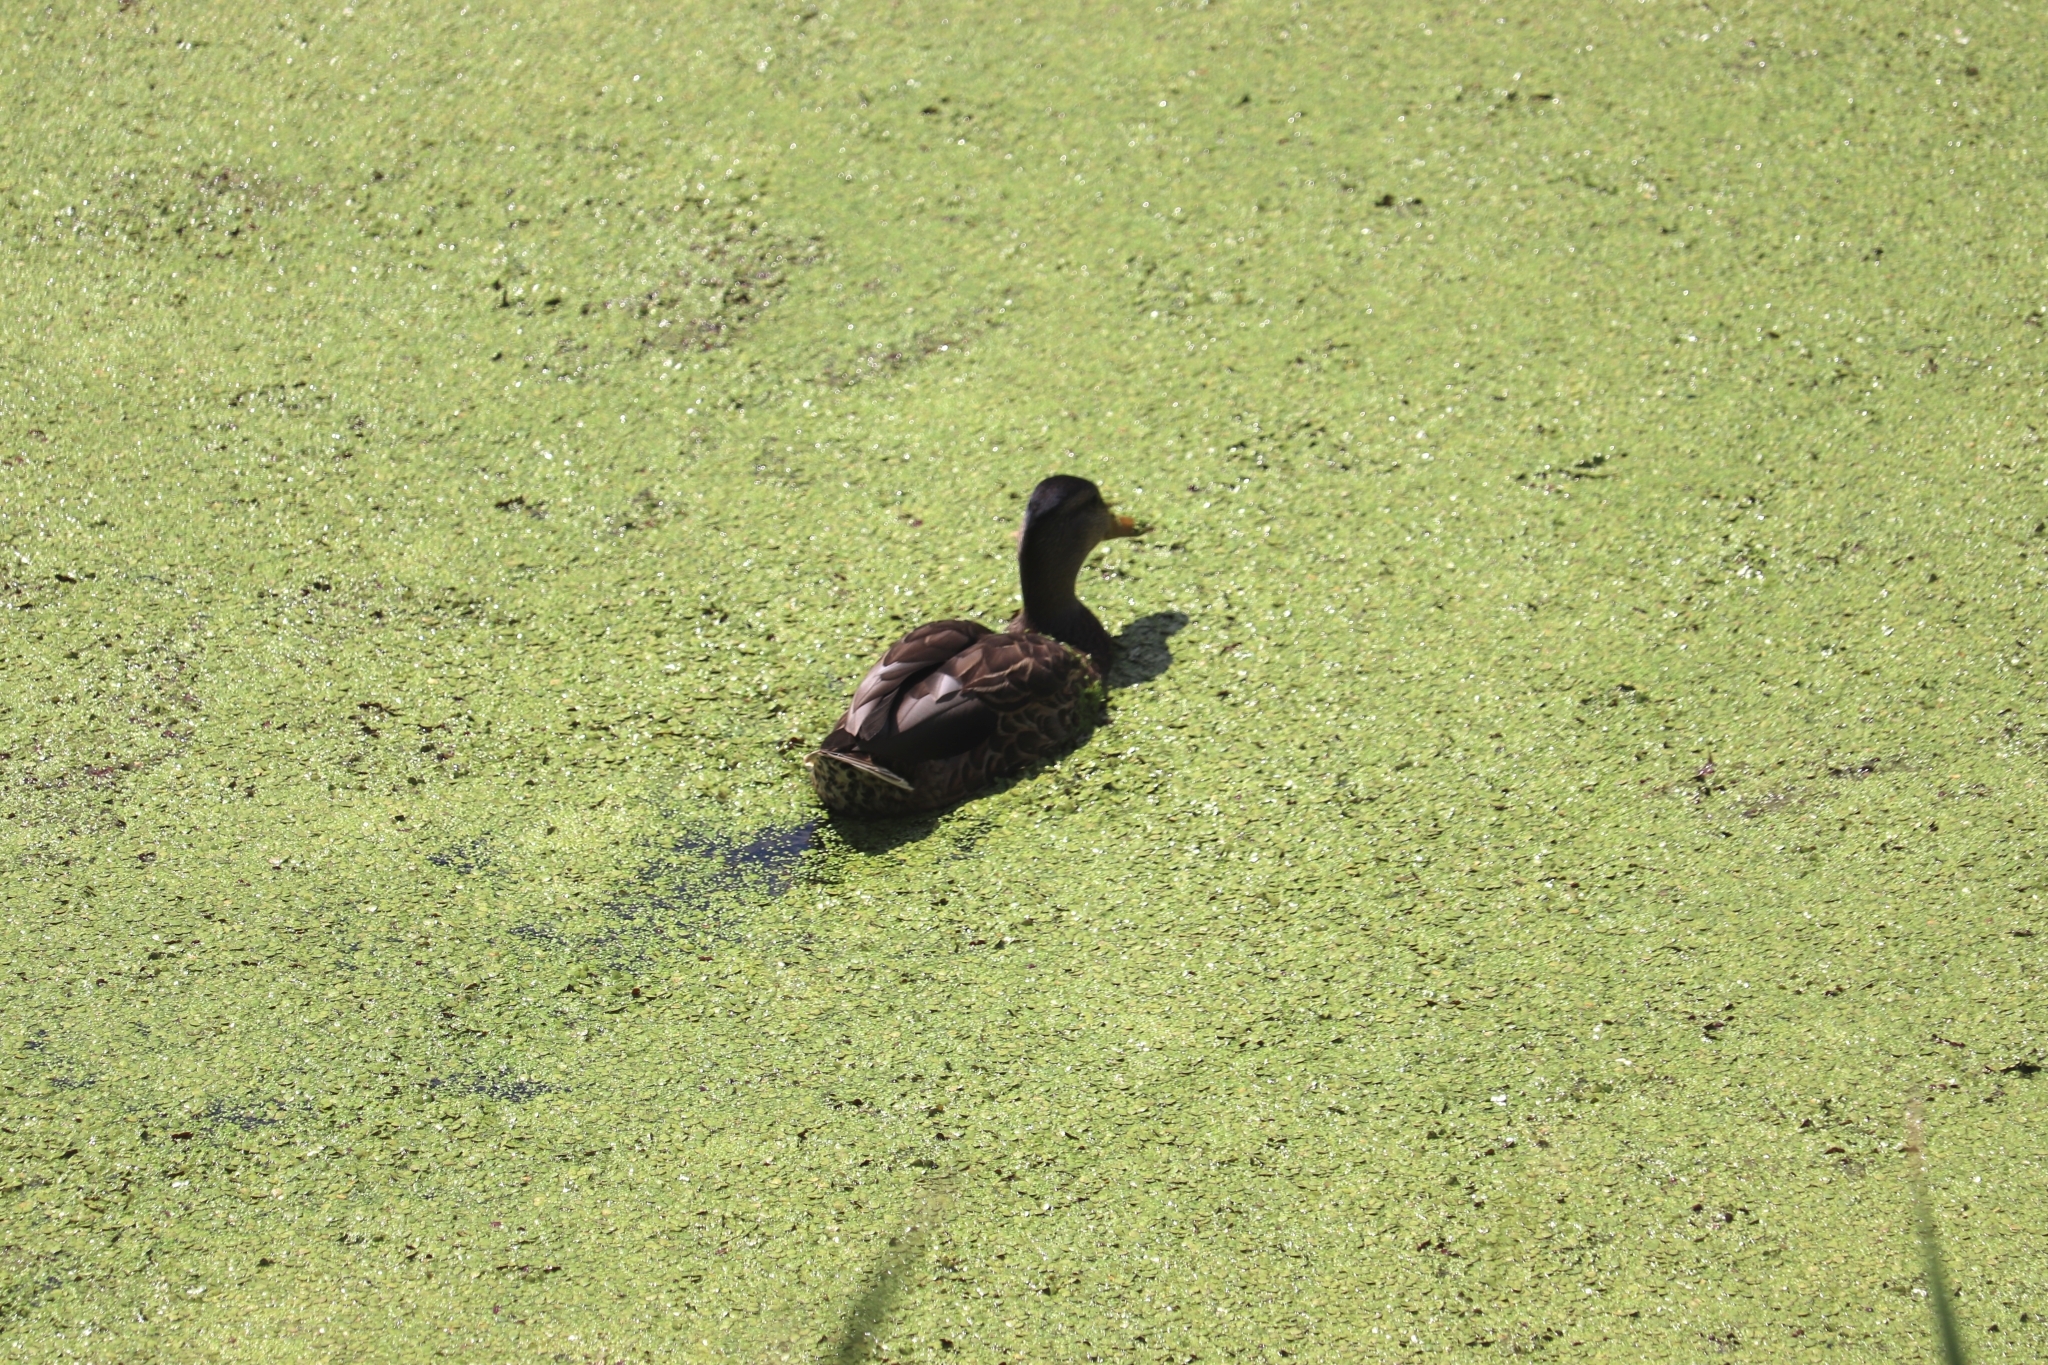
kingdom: Animalia
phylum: Chordata
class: Aves
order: Anseriformes
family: Anatidae
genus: Anas
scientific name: Anas platyrhynchos
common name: Mallard
